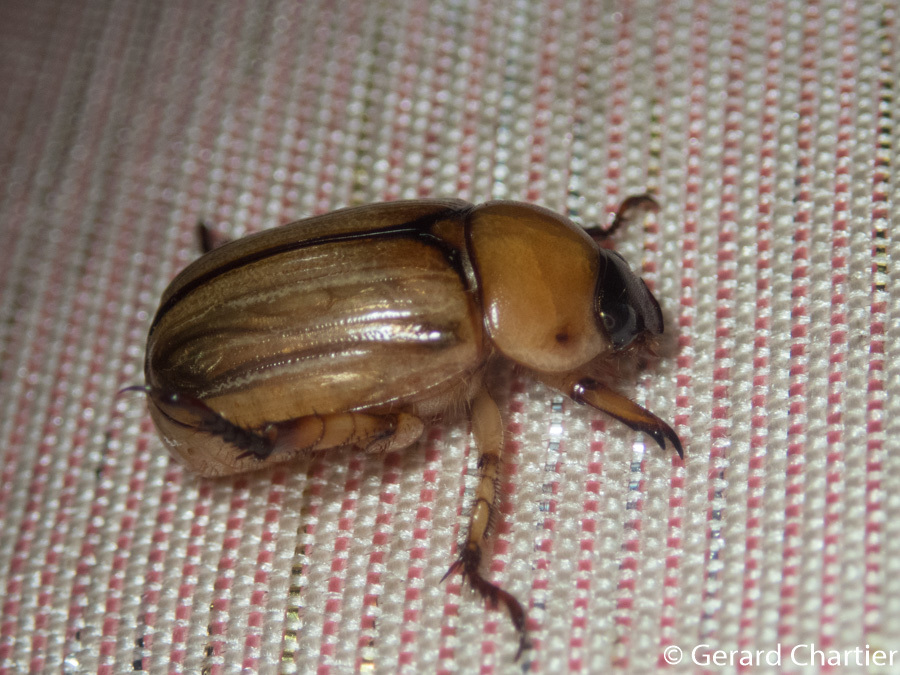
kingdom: Animalia
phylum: Arthropoda
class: Insecta
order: Coleoptera
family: Scarabaeidae
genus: Anomala
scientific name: Anomala pallida
